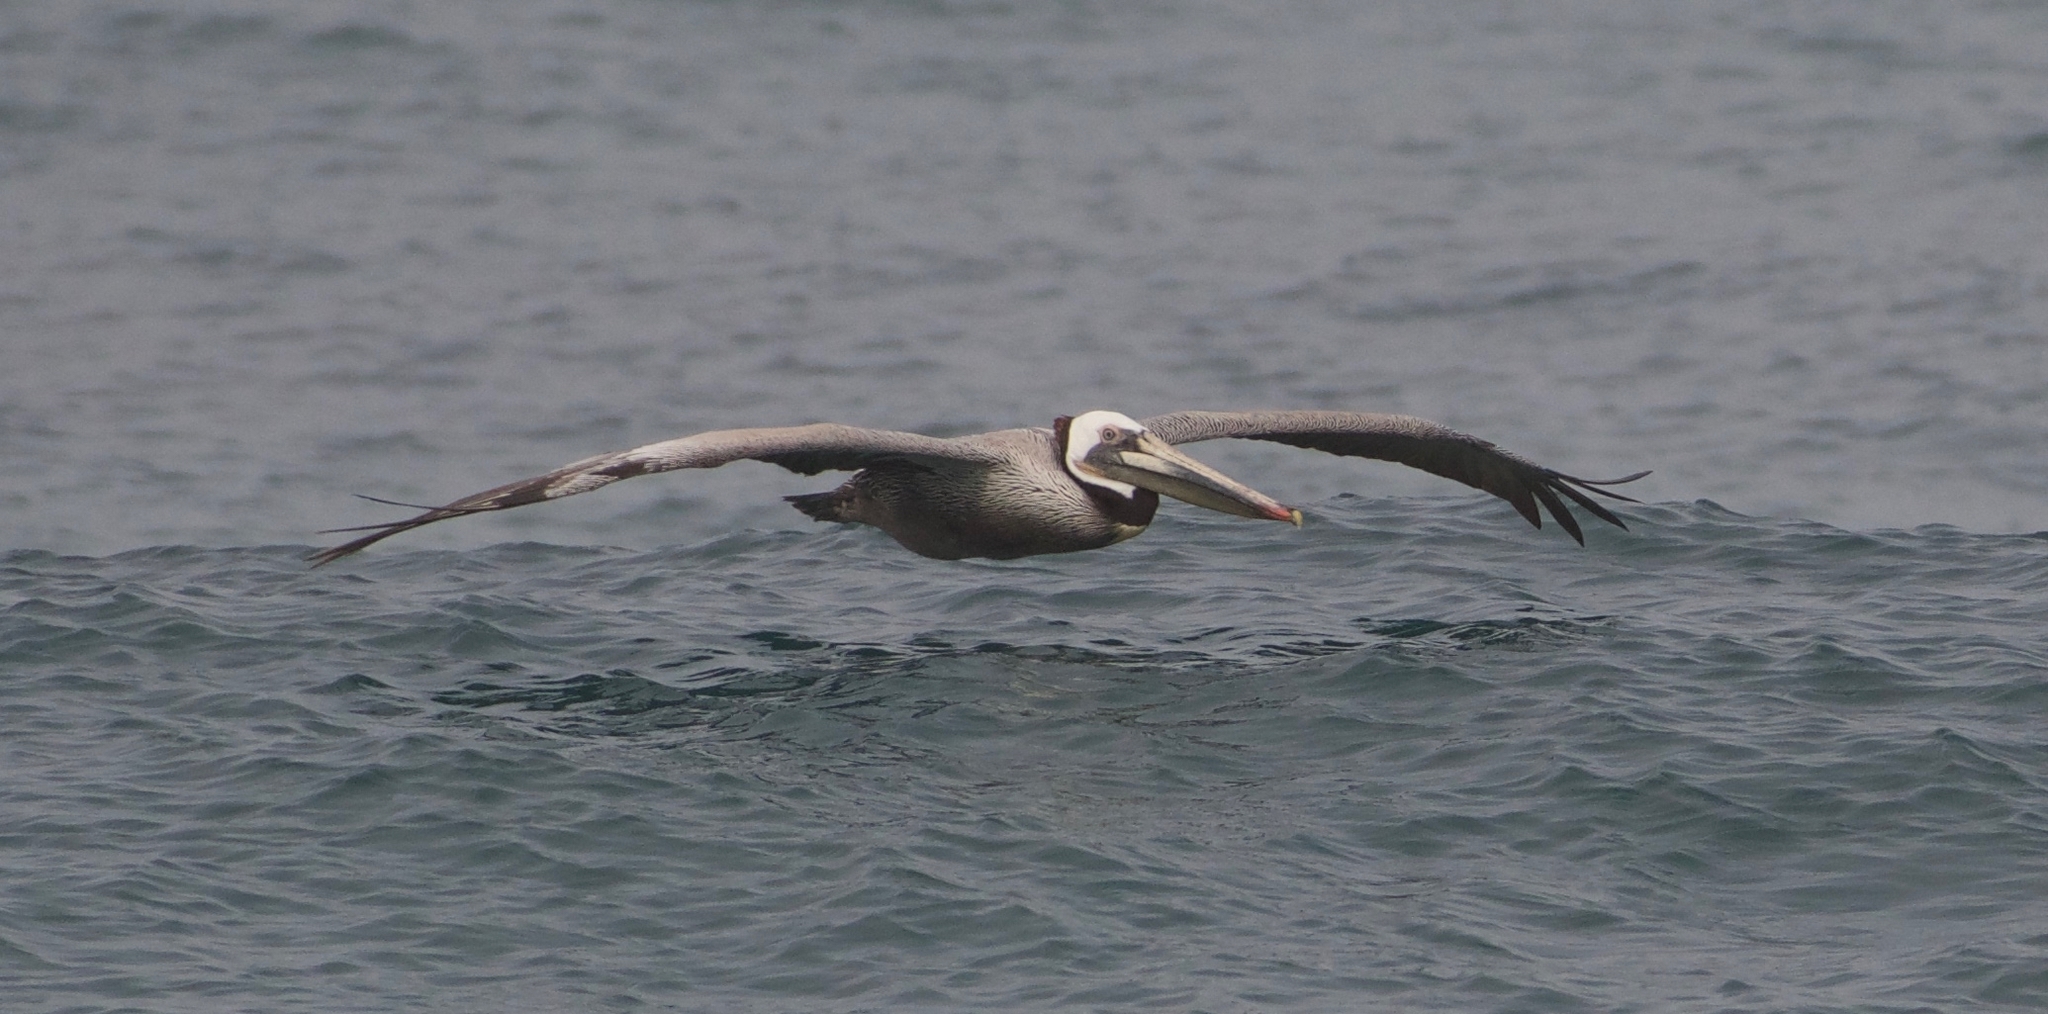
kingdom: Animalia
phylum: Chordata
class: Aves
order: Pelecaniformes
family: Pelecanidae
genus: Pelecanus
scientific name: Pelecanus occidentalis
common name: Brown pelican
